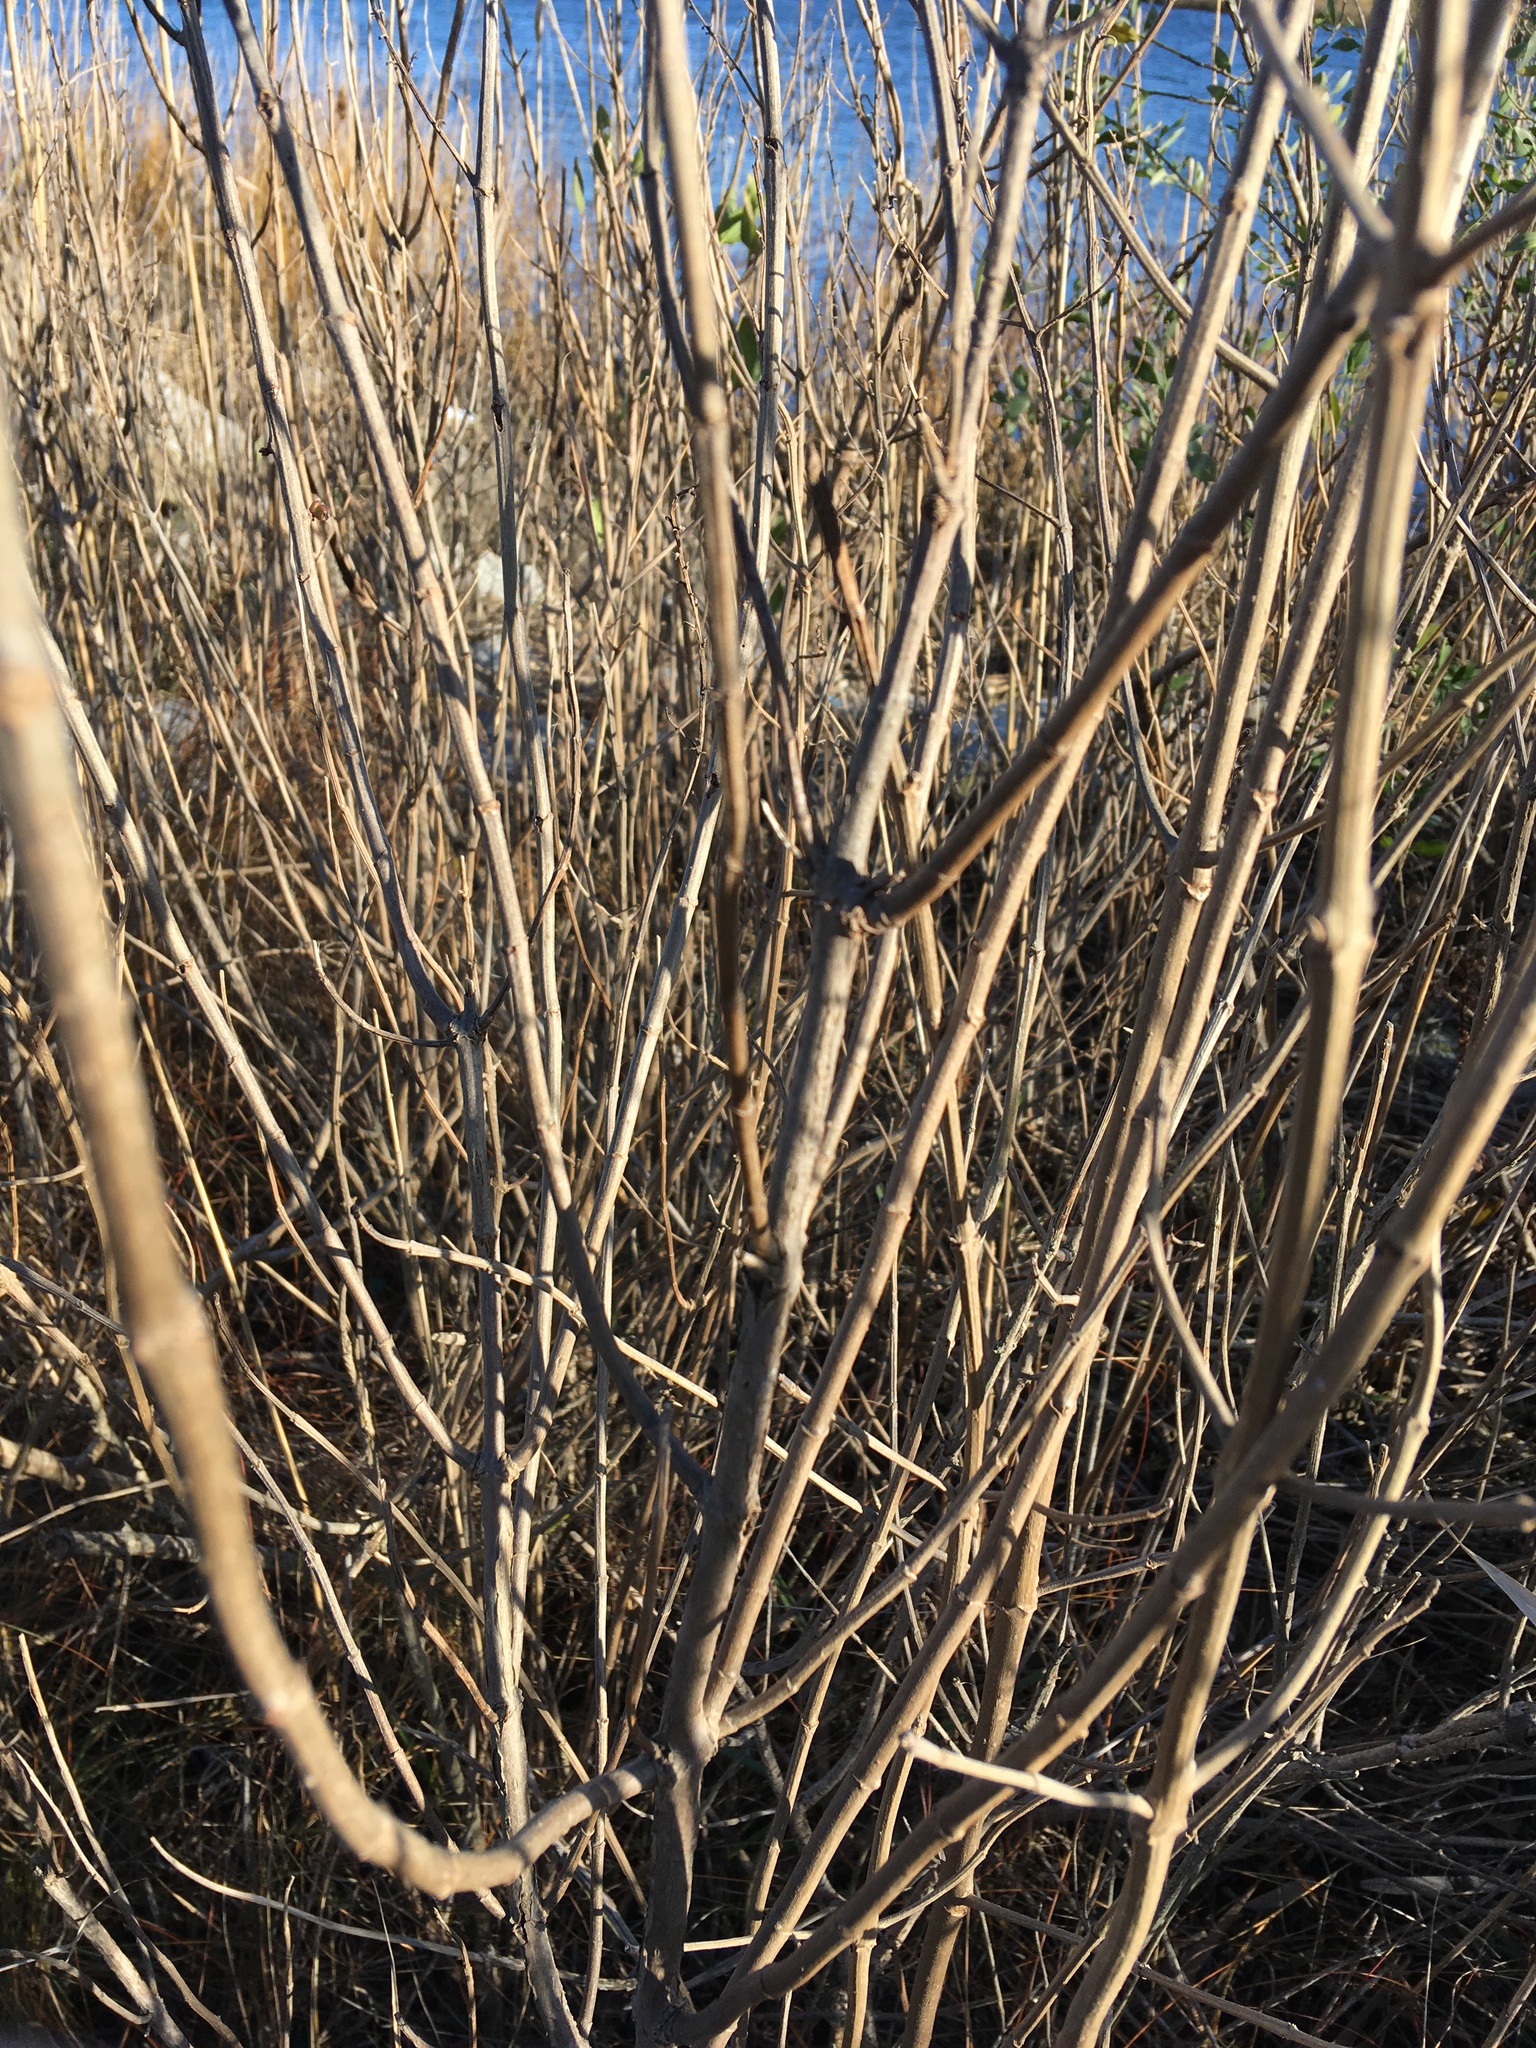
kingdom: Plantae
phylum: Tracheophyta
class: Magnoliopsida
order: Asterales
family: Asteraceae
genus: Iva
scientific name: Iva frutescens
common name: Big-leaved marsh-elder
